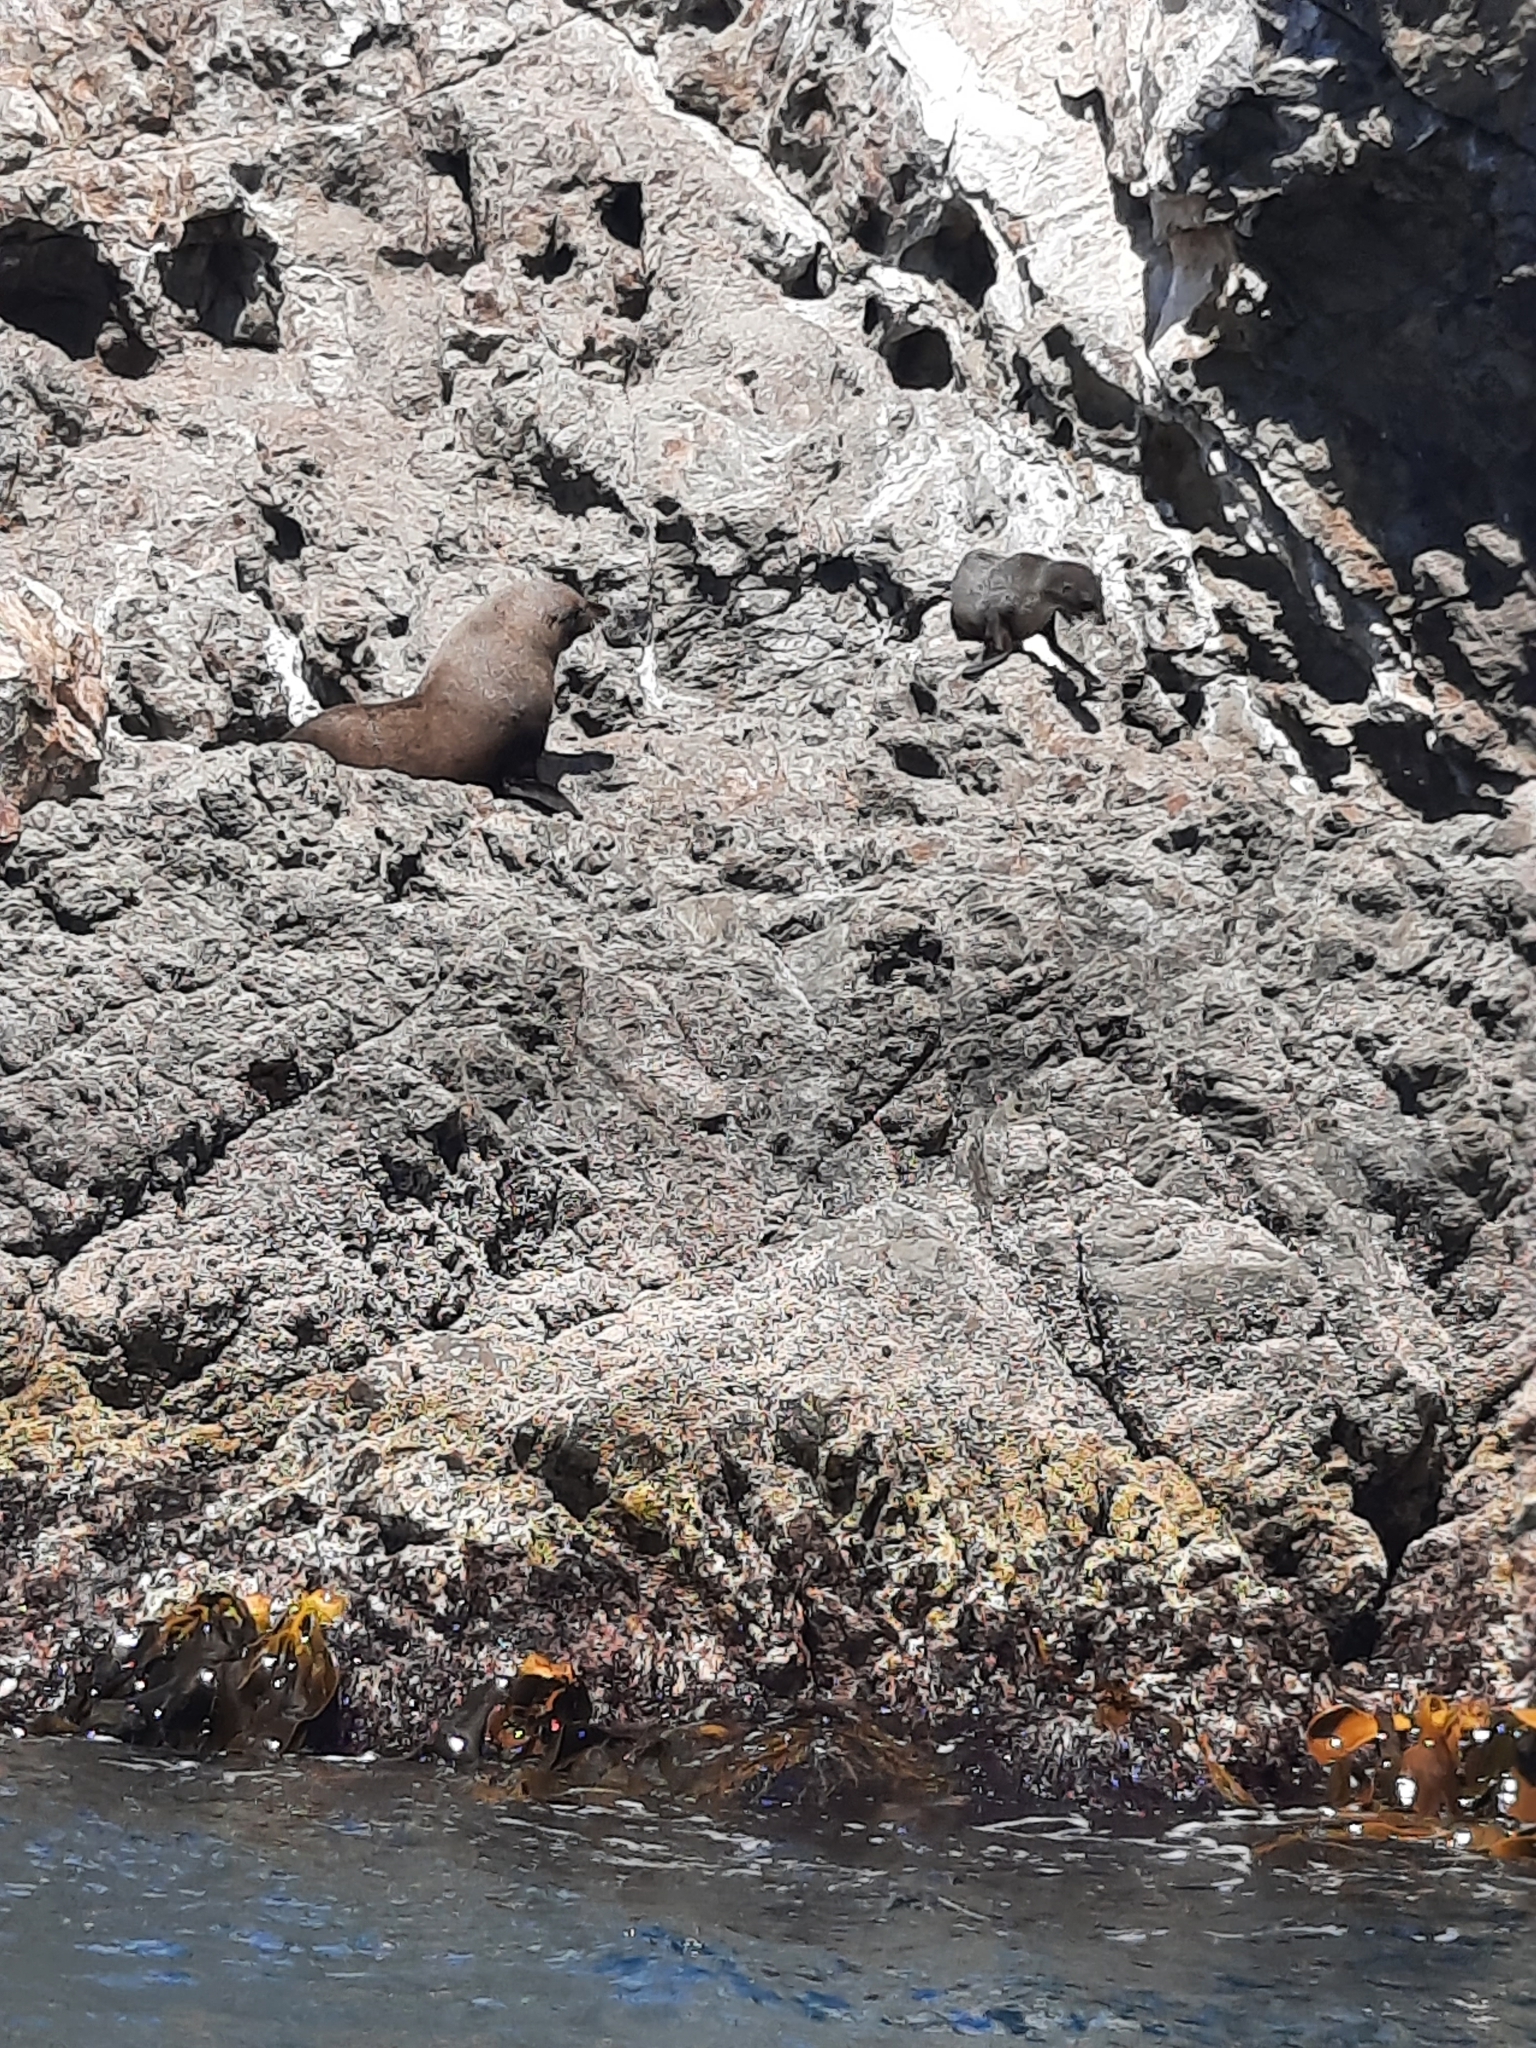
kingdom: Animalia
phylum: Chordata
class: Mammalia
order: Carnivora
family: Otariidae
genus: Arctocephalus
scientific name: Arctocephalus forsteri
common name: New zealand fur seal
